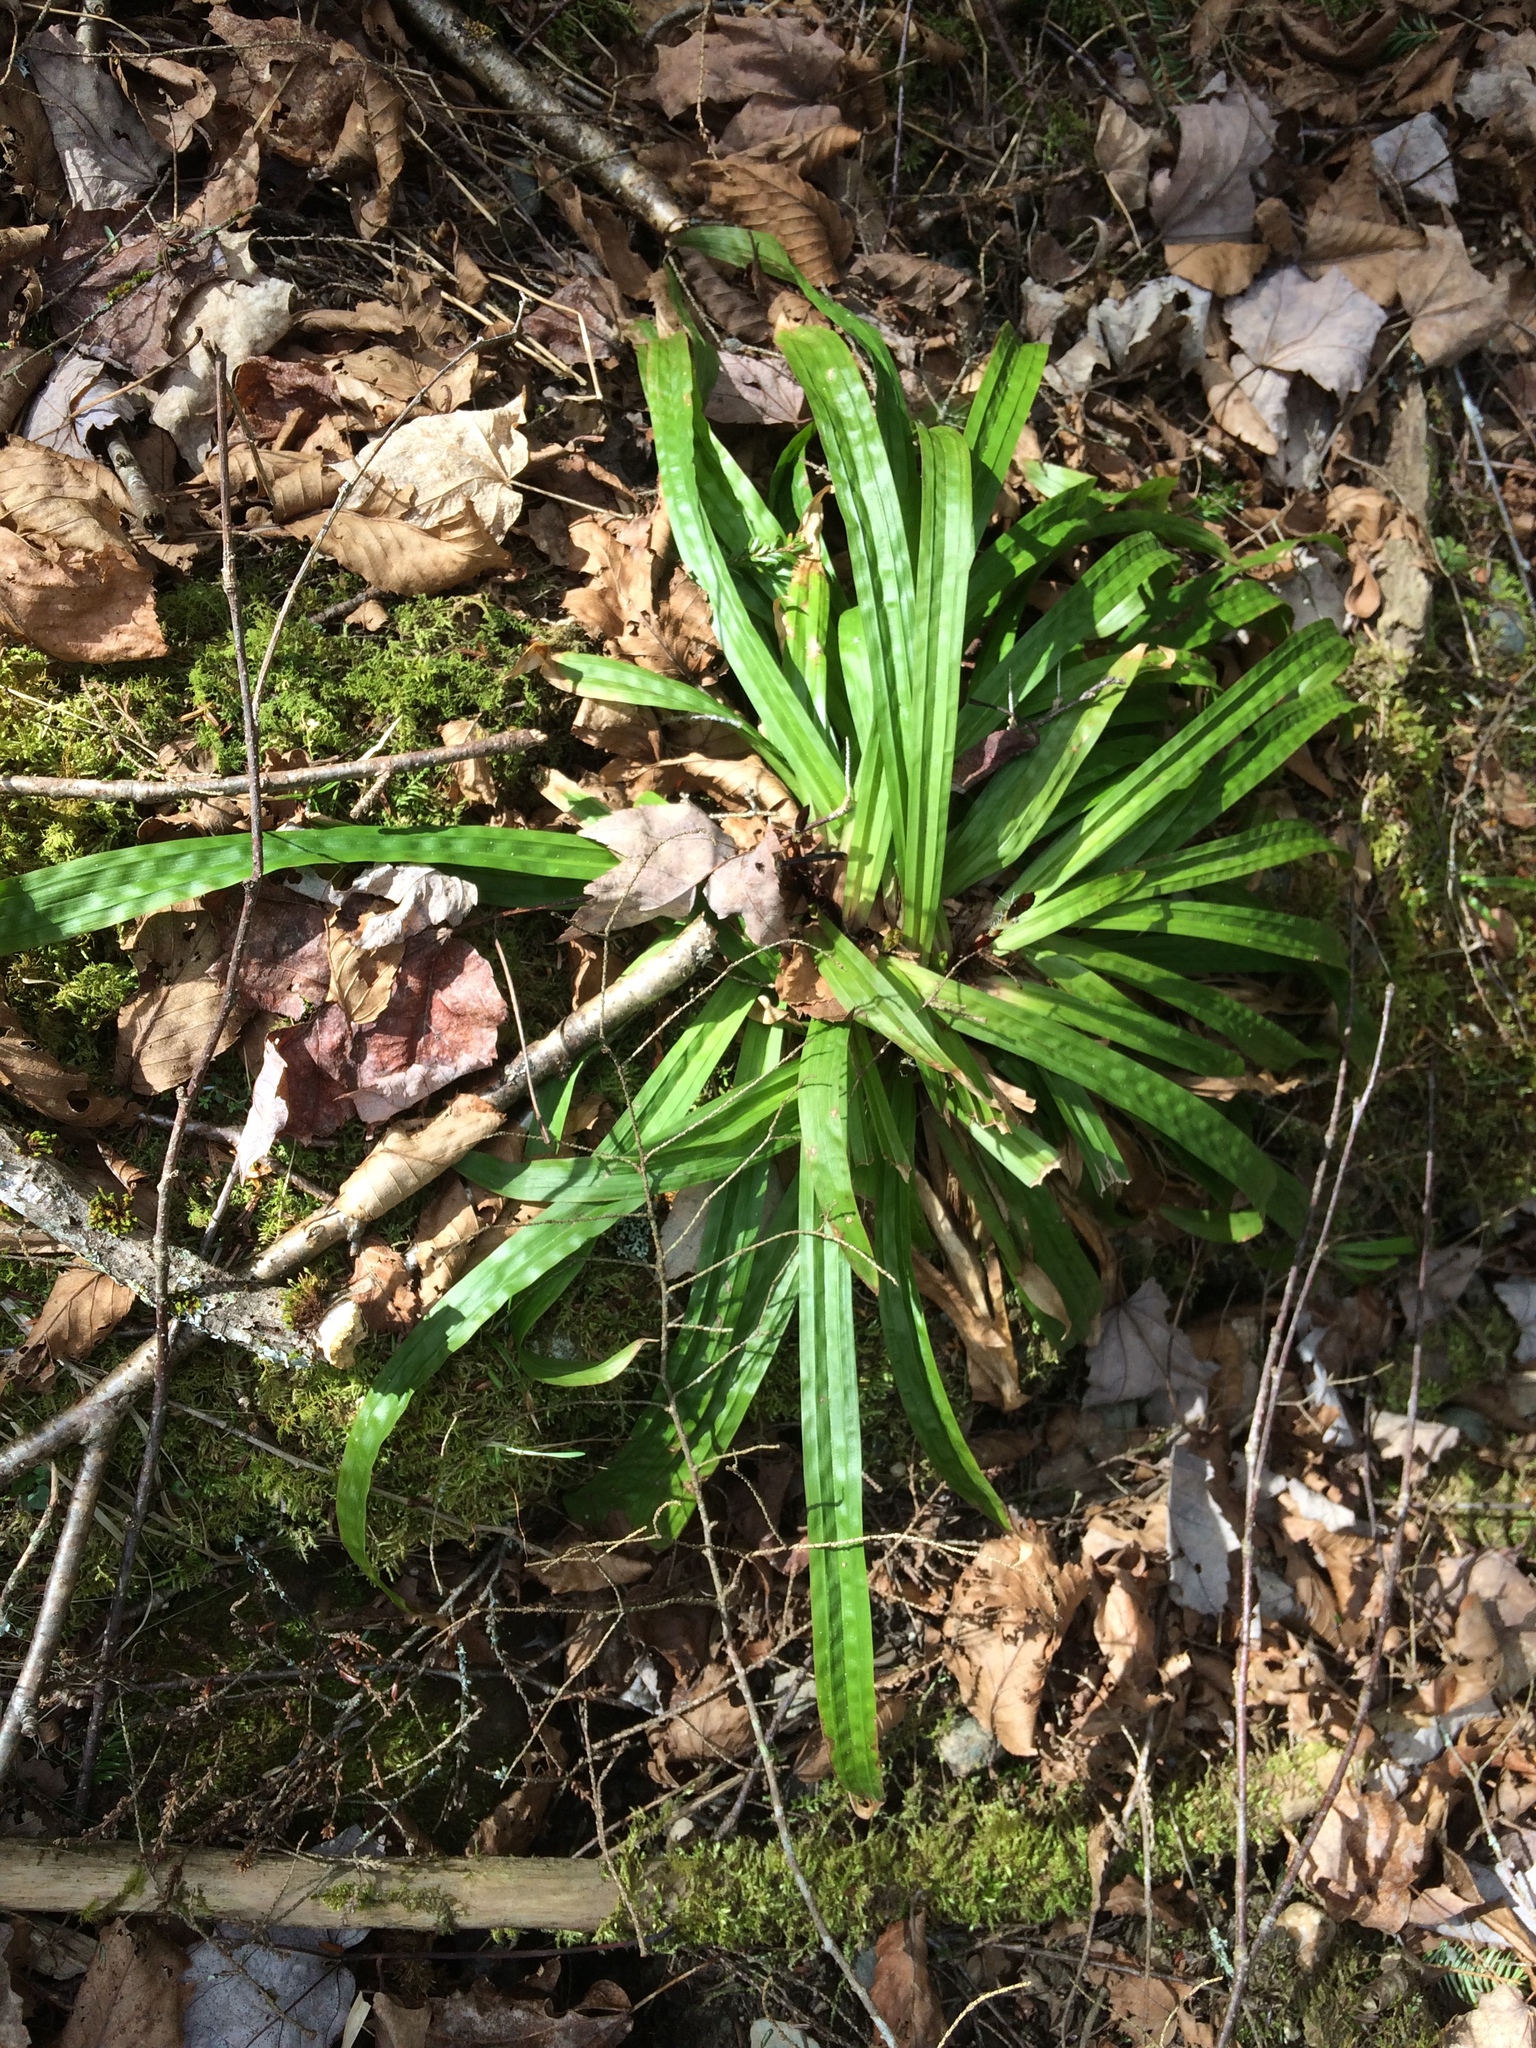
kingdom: Plantae
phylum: Tracheophyta
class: Liliopsida
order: Poales
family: Cyperaceae
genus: Carex
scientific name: Carex plantaginea
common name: Plantain-leaved sedge
